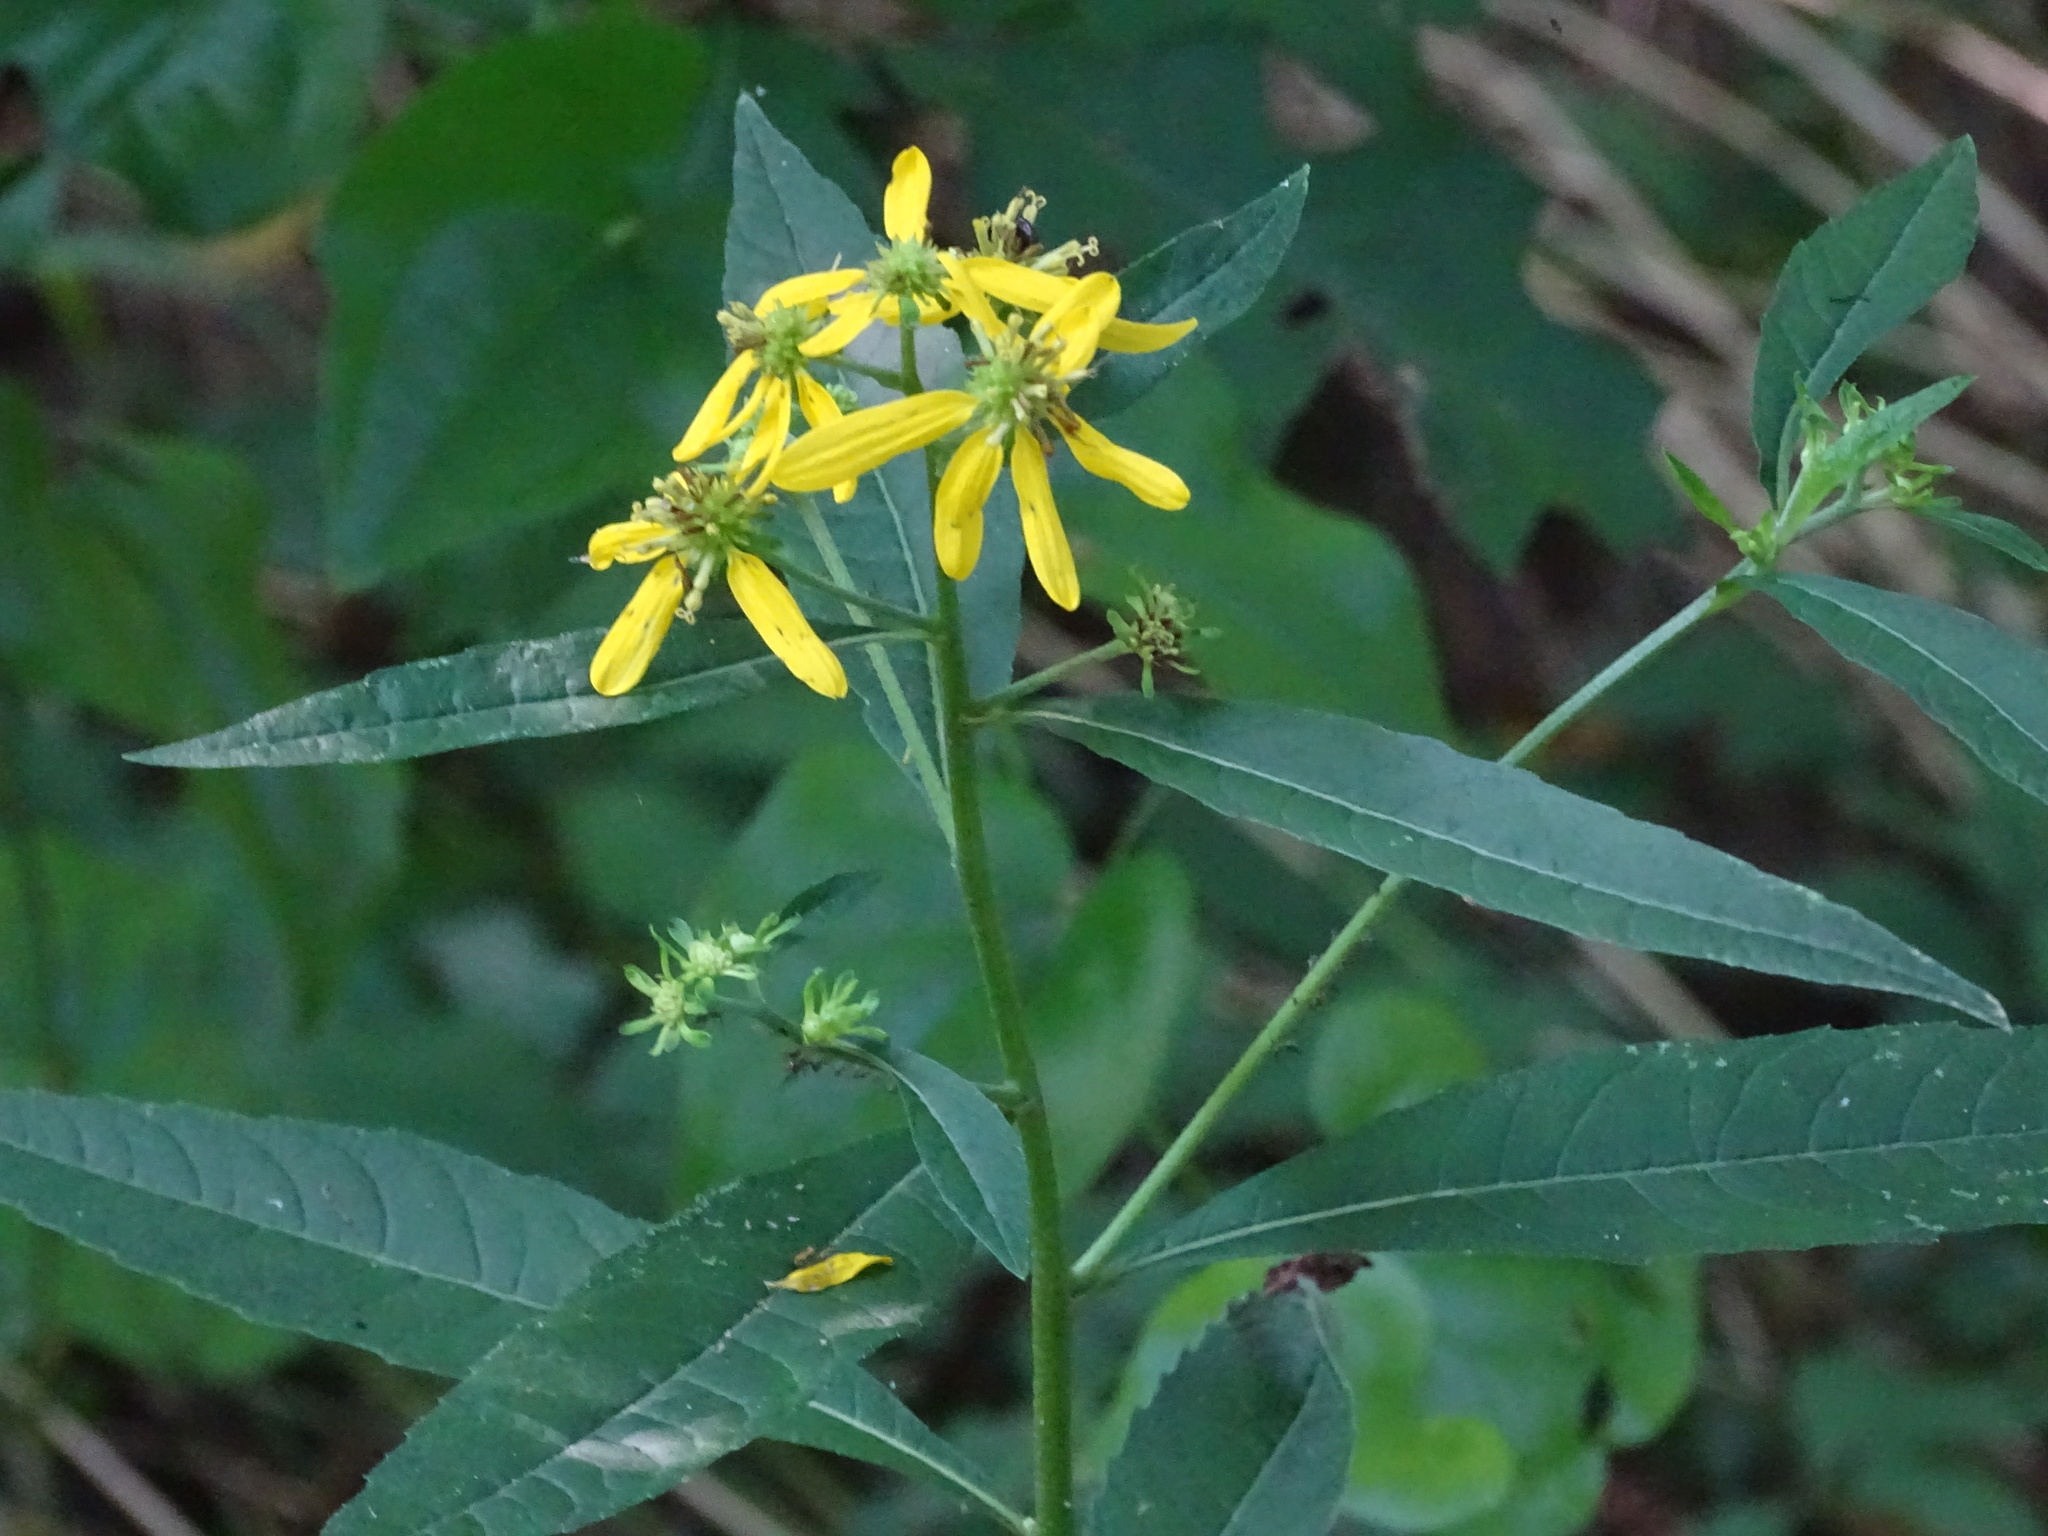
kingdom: Plantae
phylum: Tracheophyta
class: Magnoliopsida
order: Asterales
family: Asteraceae
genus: Verbesina
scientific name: Verbesina alternifolia
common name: Wingstem
